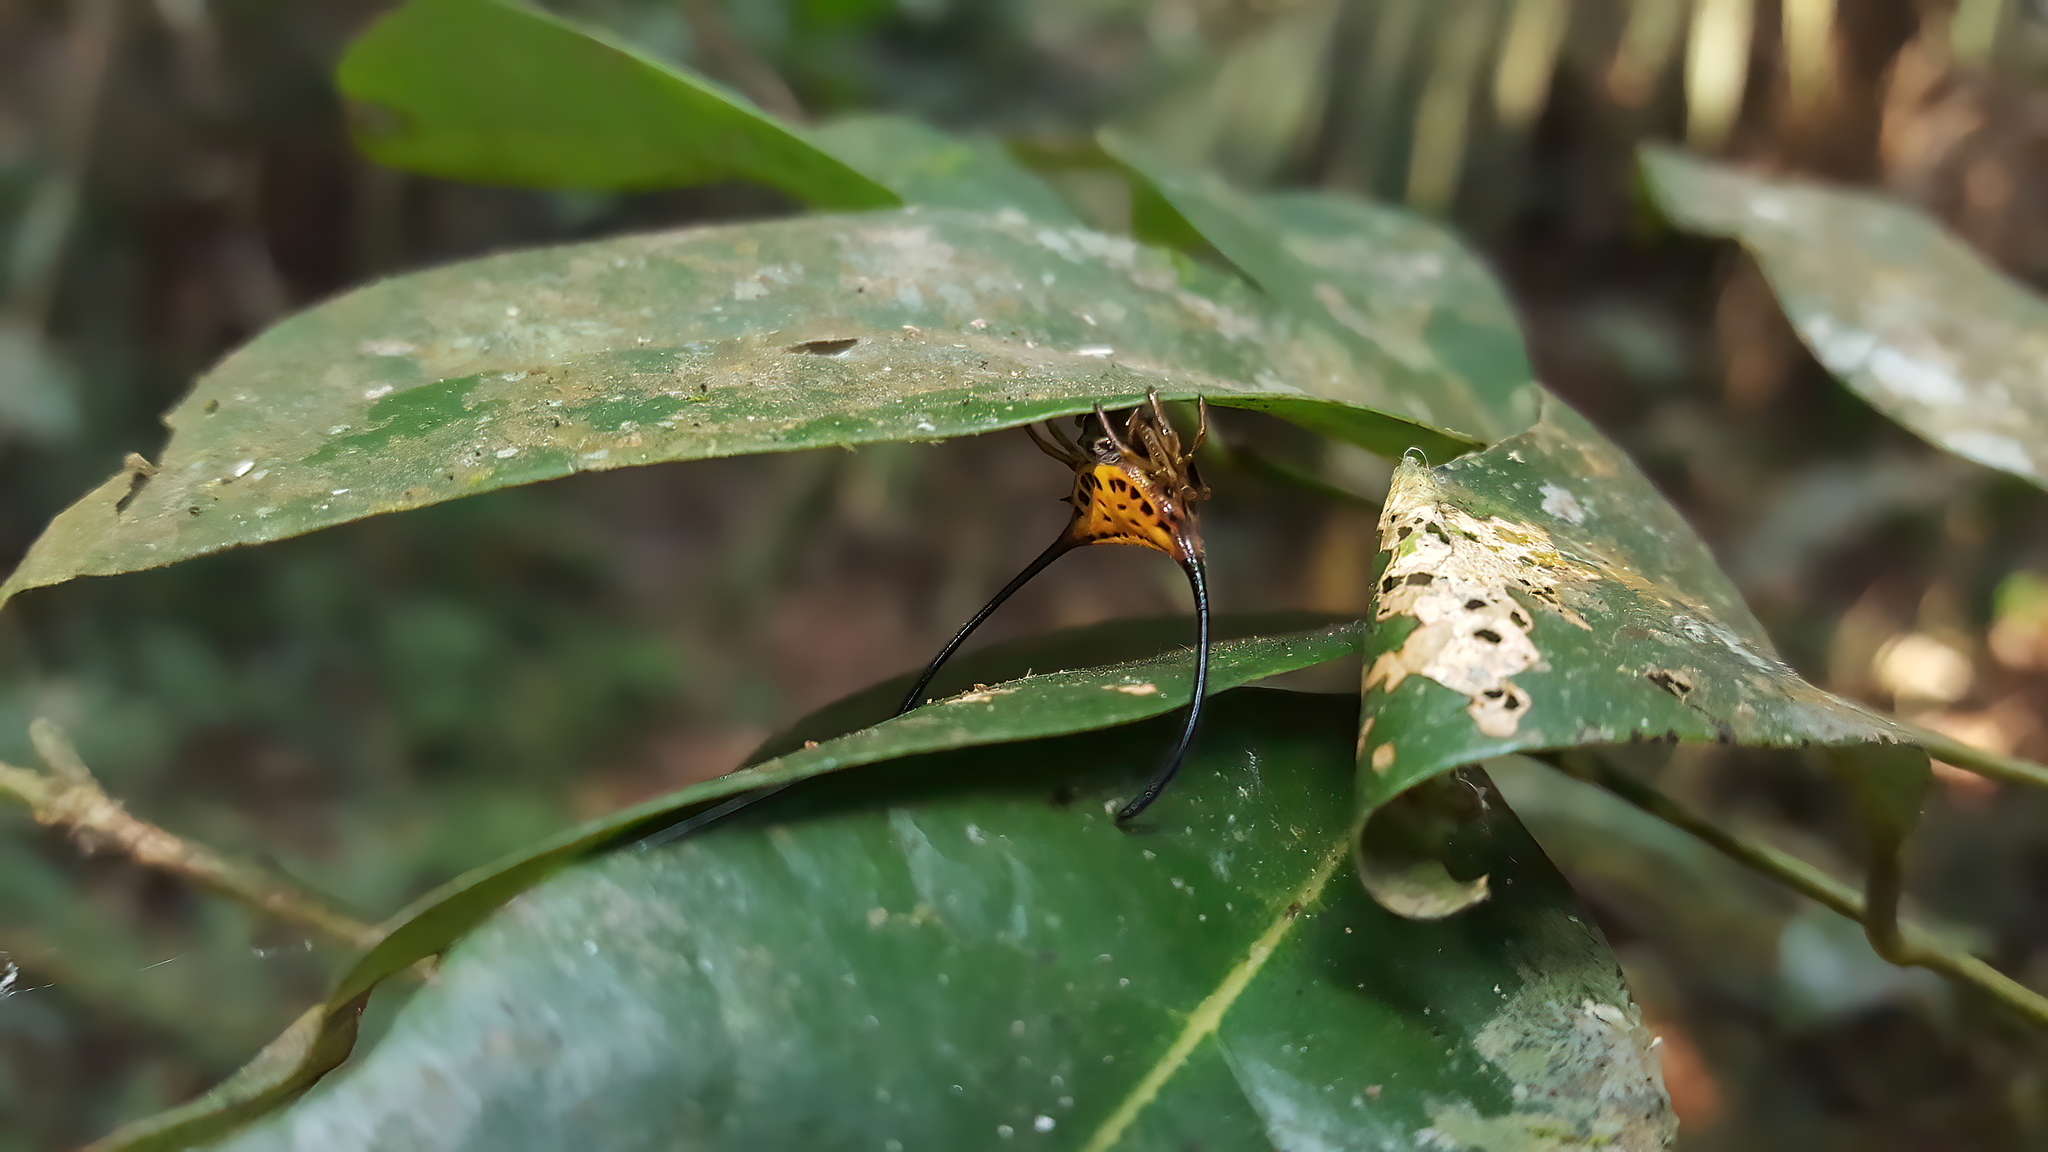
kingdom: Animalia
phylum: Arthropoda
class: Arachnida
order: Araneae
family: Araneidae
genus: Macracantha
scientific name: Macracantha arcuata
